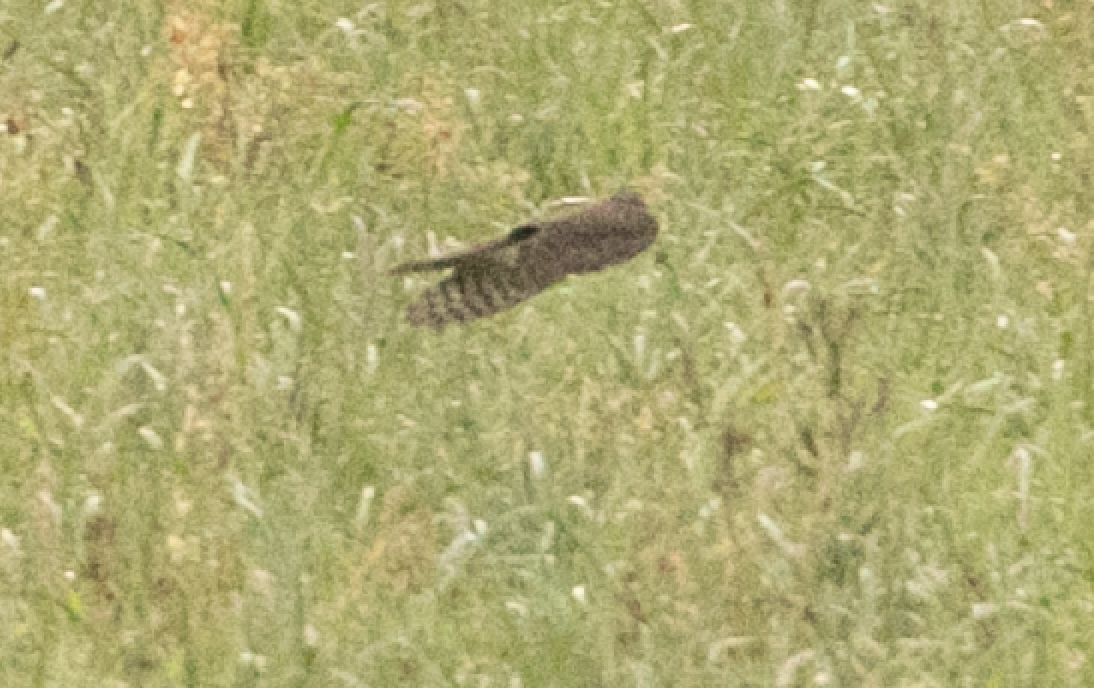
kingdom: Animalia
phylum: Chordata
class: Aves
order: Accipitriformes
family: Accipitridae
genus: Accipiter
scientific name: Accipiter nisus
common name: Eurasian sparrowhawk
